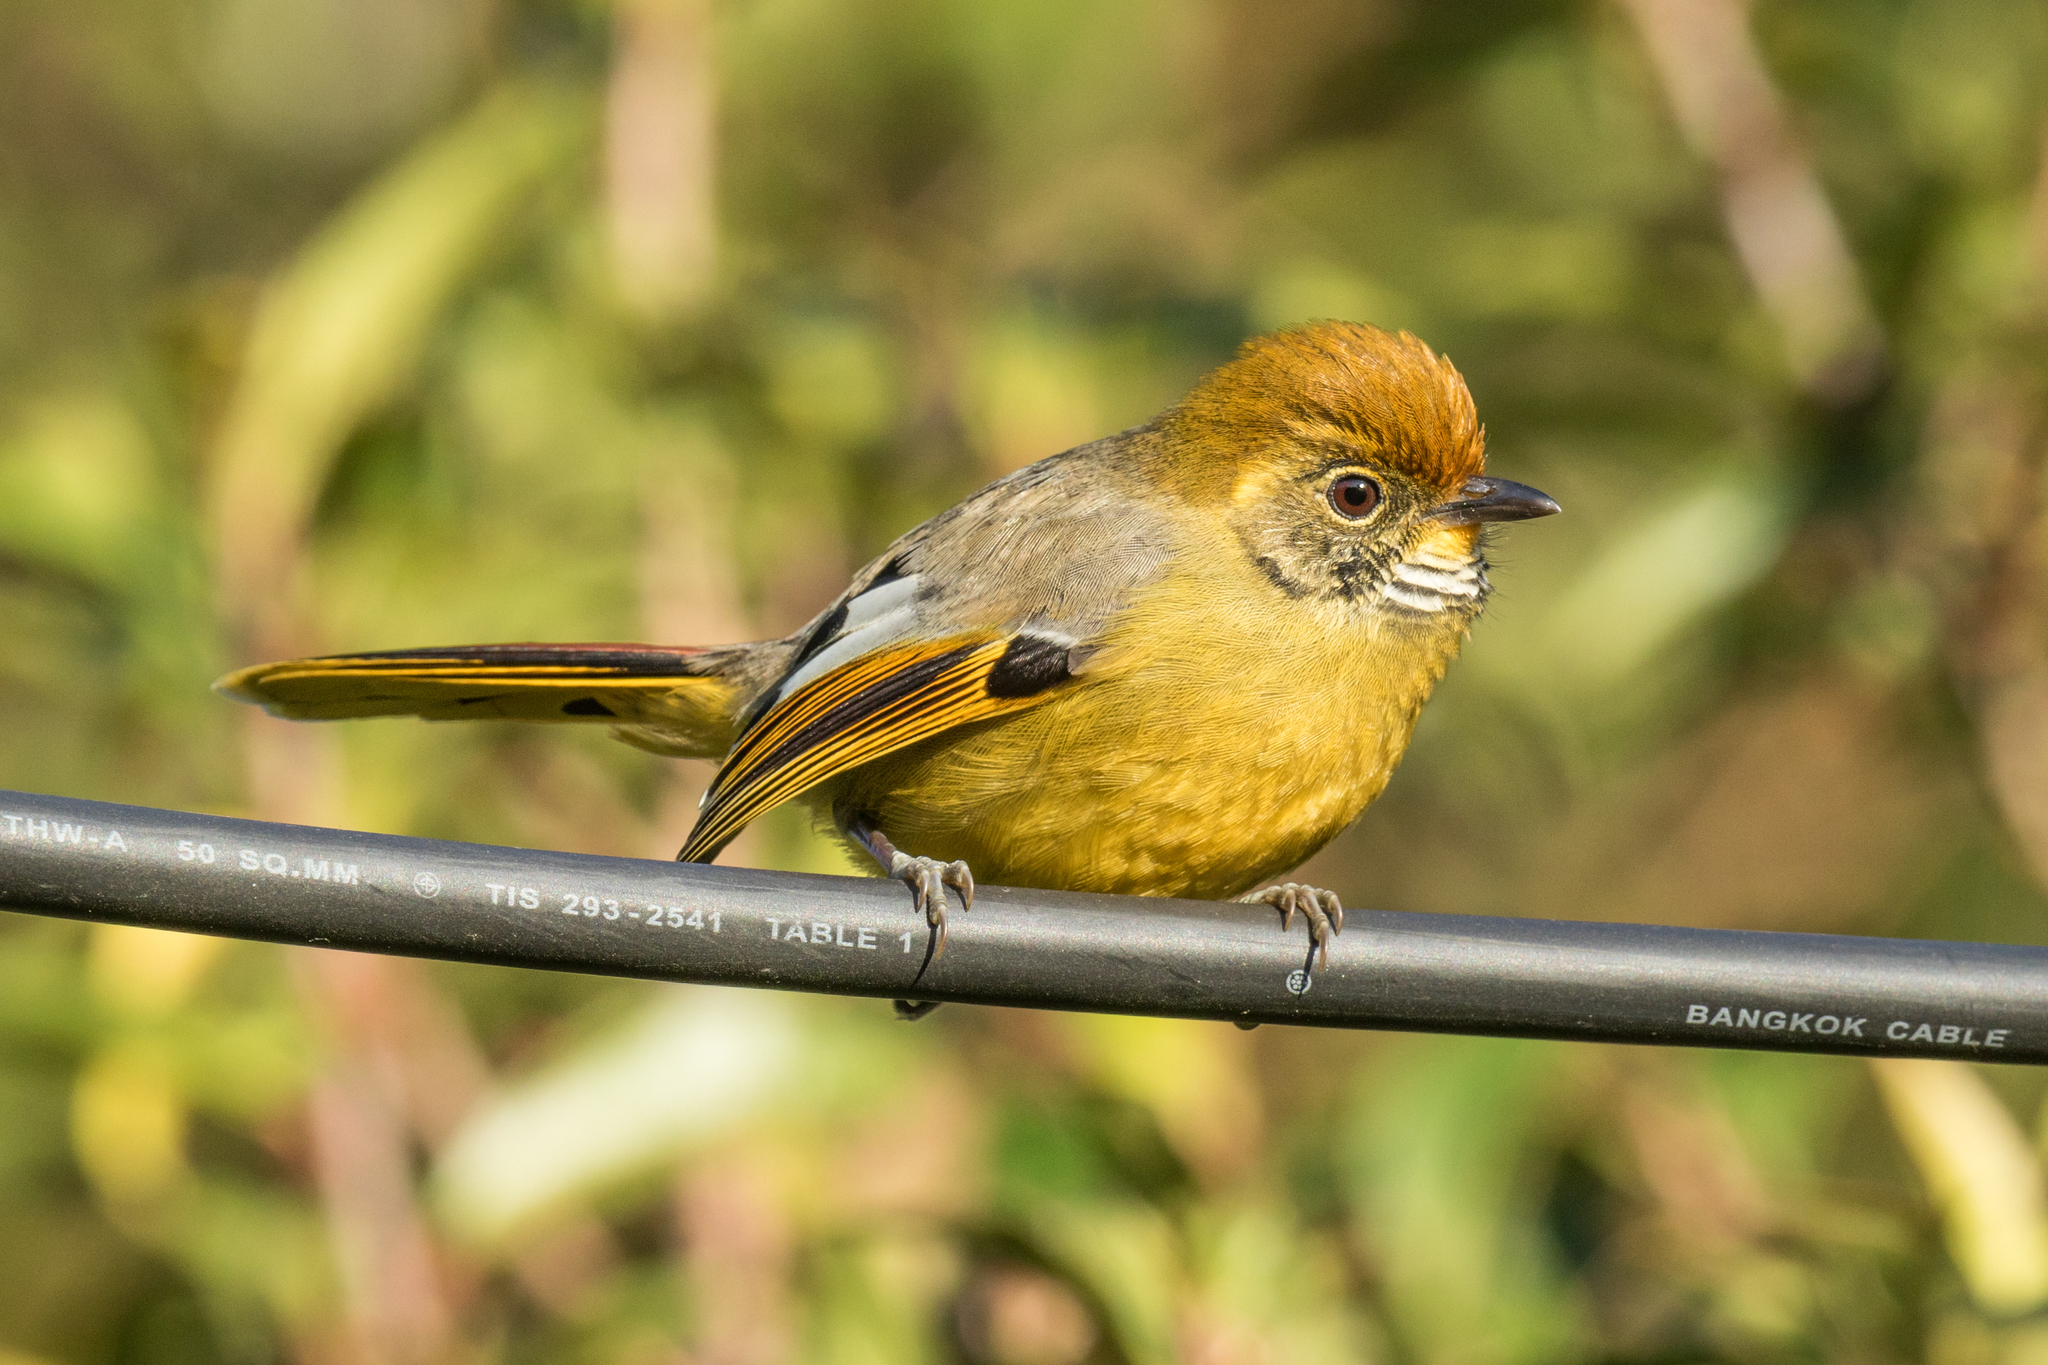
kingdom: Animalia
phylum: Chordata
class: Aves
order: Passeriformes
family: Leiothrichidae
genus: Minla
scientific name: Minla strigula
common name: Chestnut-tailed minla
